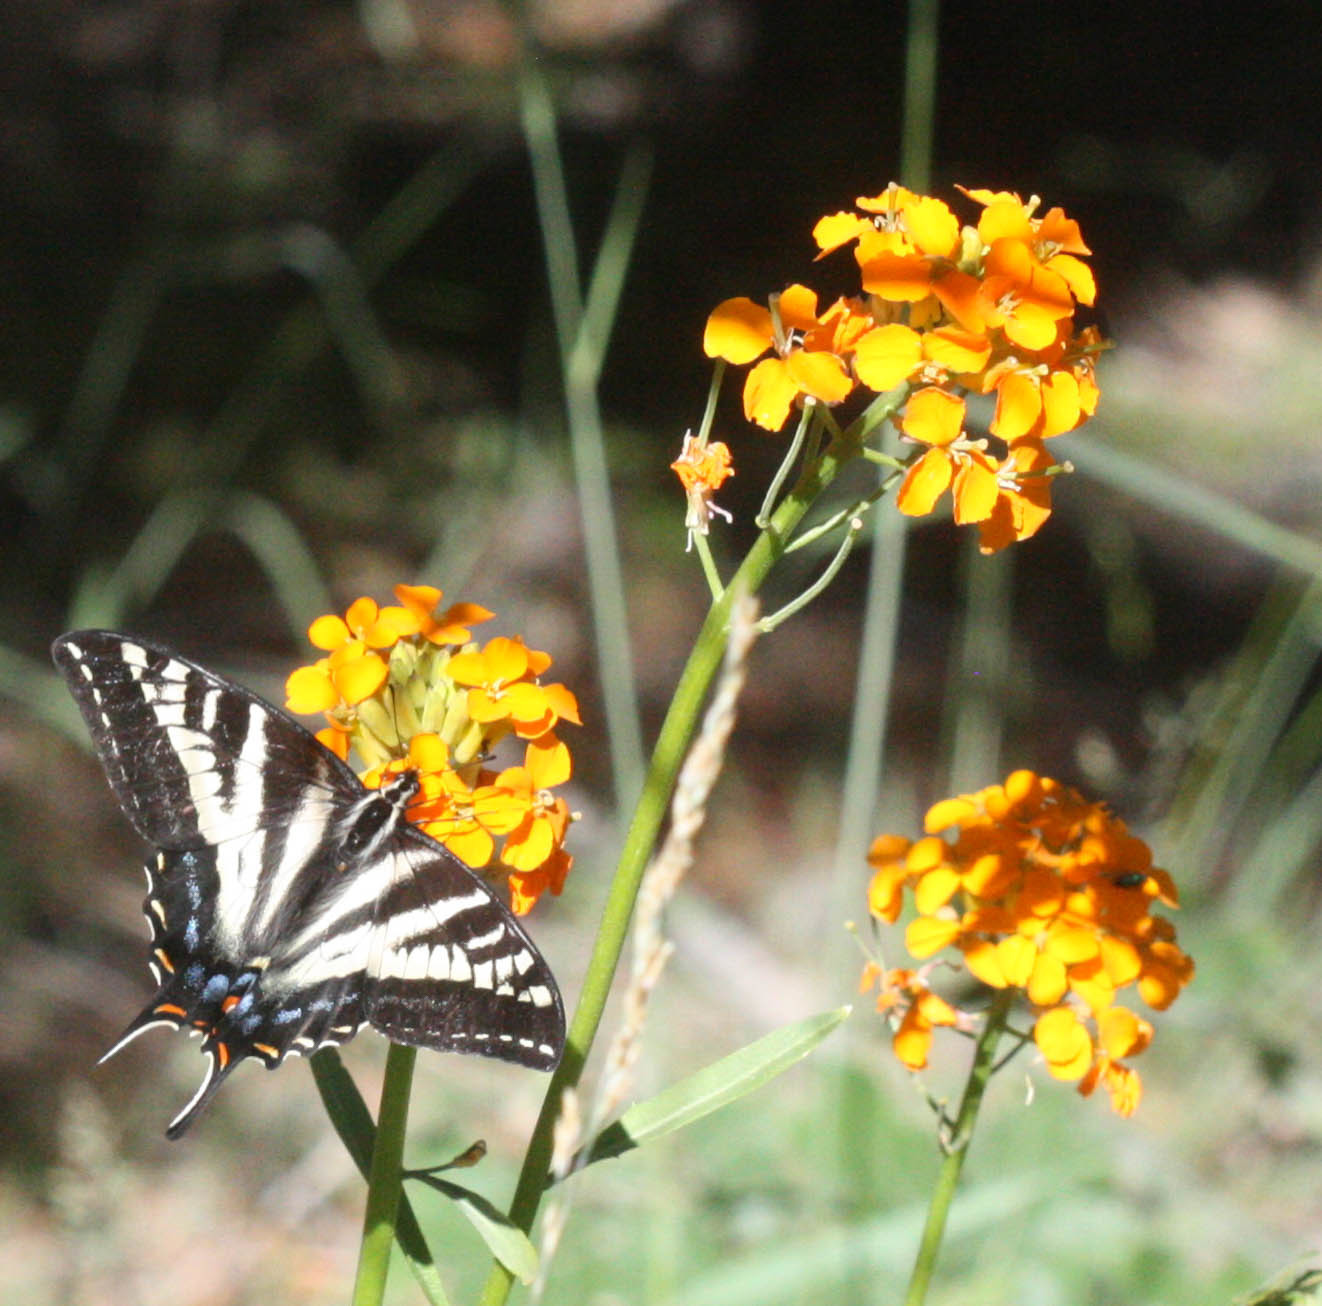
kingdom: Animalia
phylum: Arthropoda
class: Insecta
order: Lepidoptera
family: Papilionidae
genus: Papilio
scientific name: Papilio eurymedon
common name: Pale tiger swallowtail
